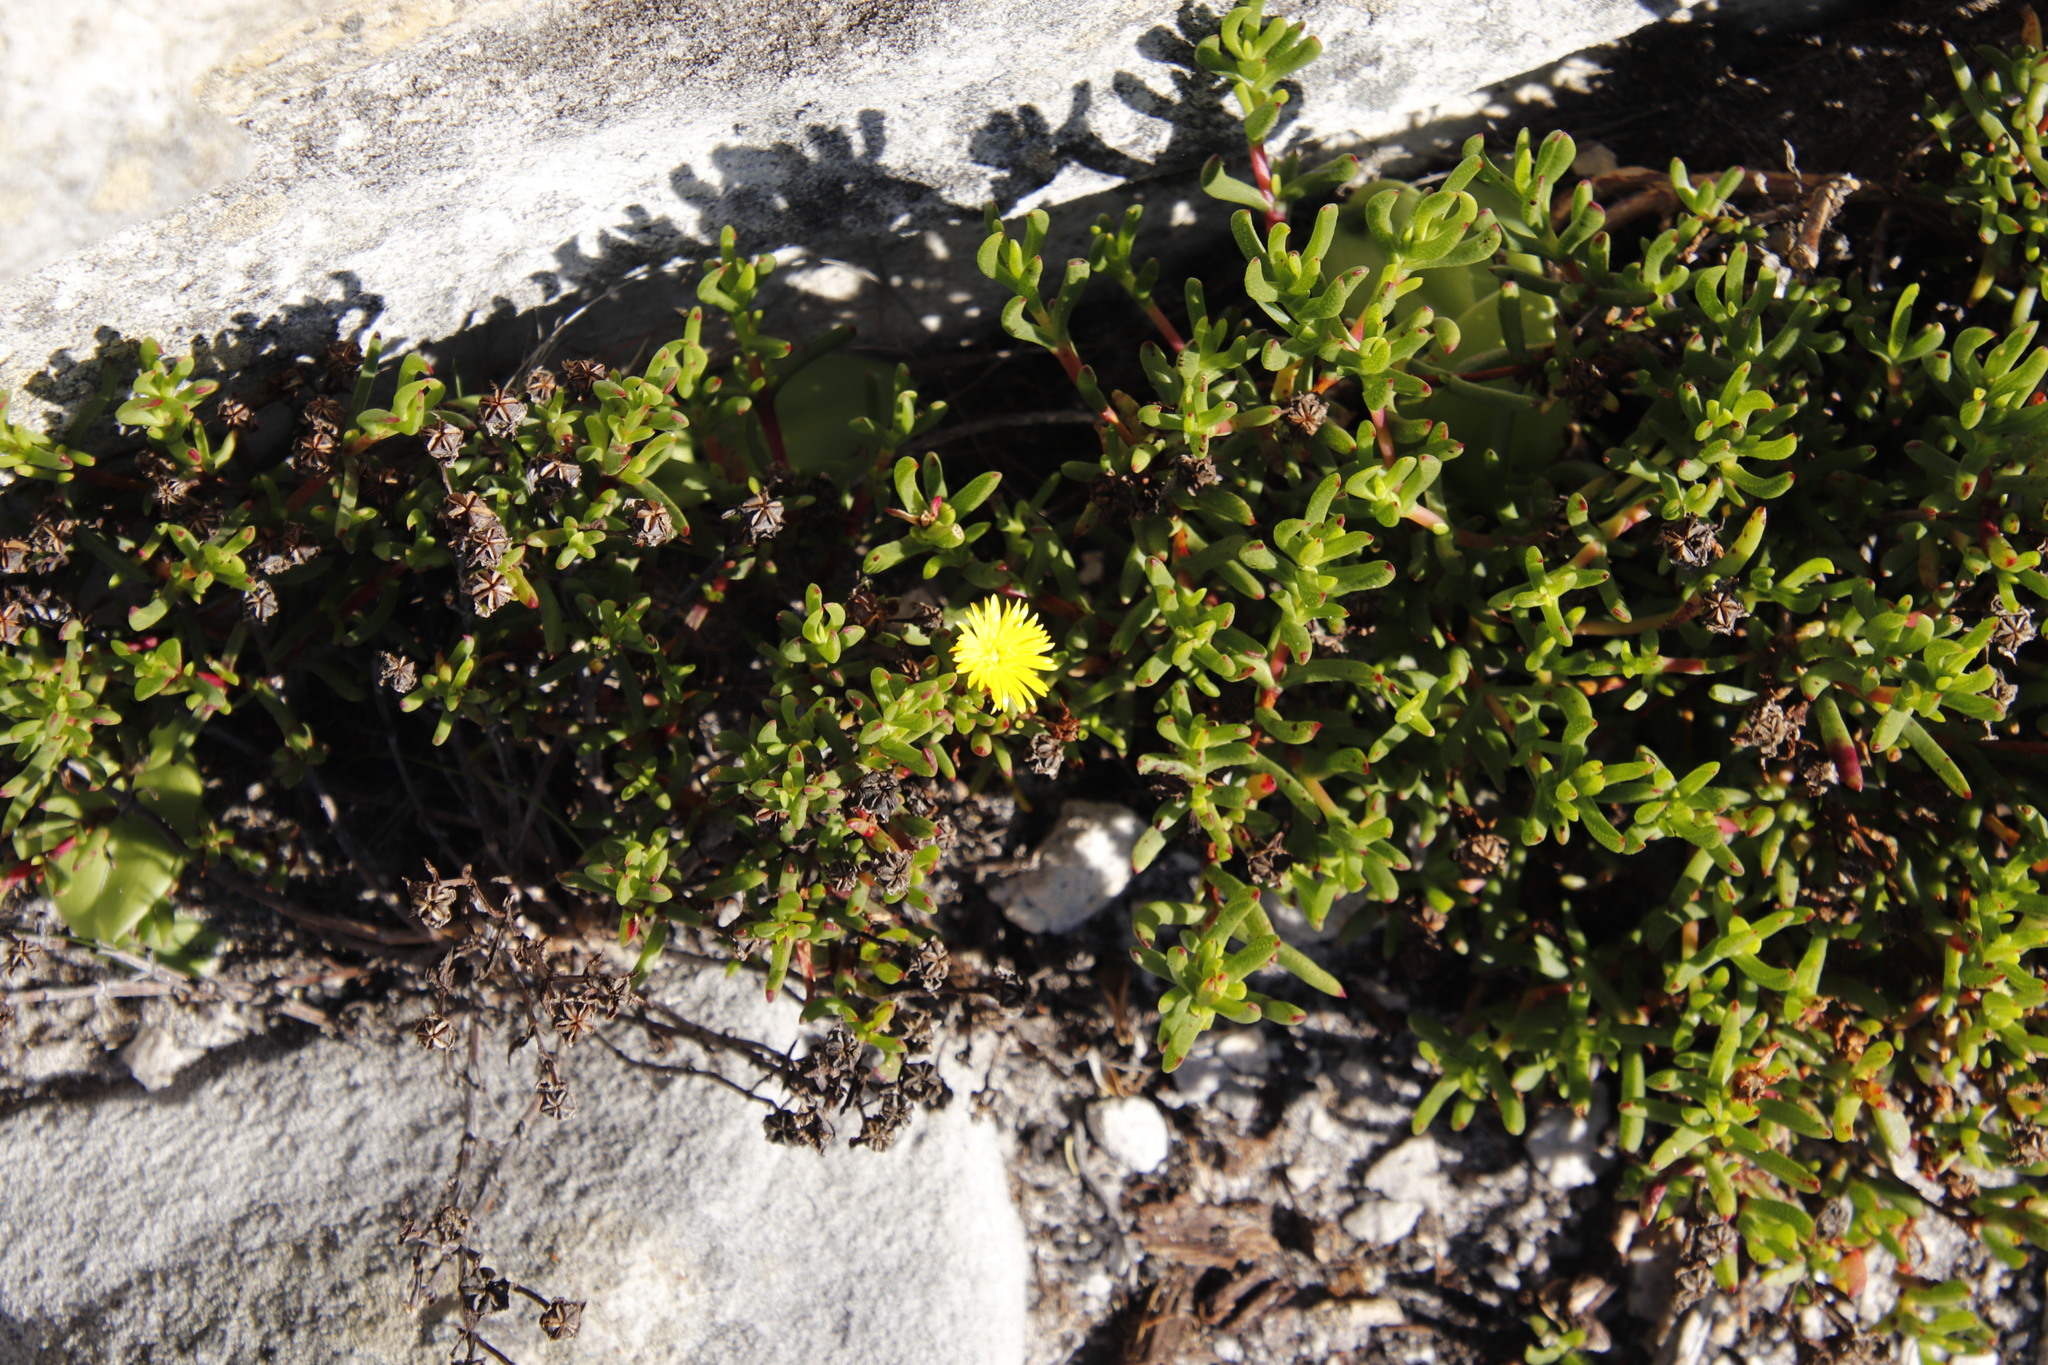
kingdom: Plantae
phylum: Tracheophyta
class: Magnoliopsida
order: Caryophyllales
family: Aizoaceae
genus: Lampranthus
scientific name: Lampranthus promontorii
